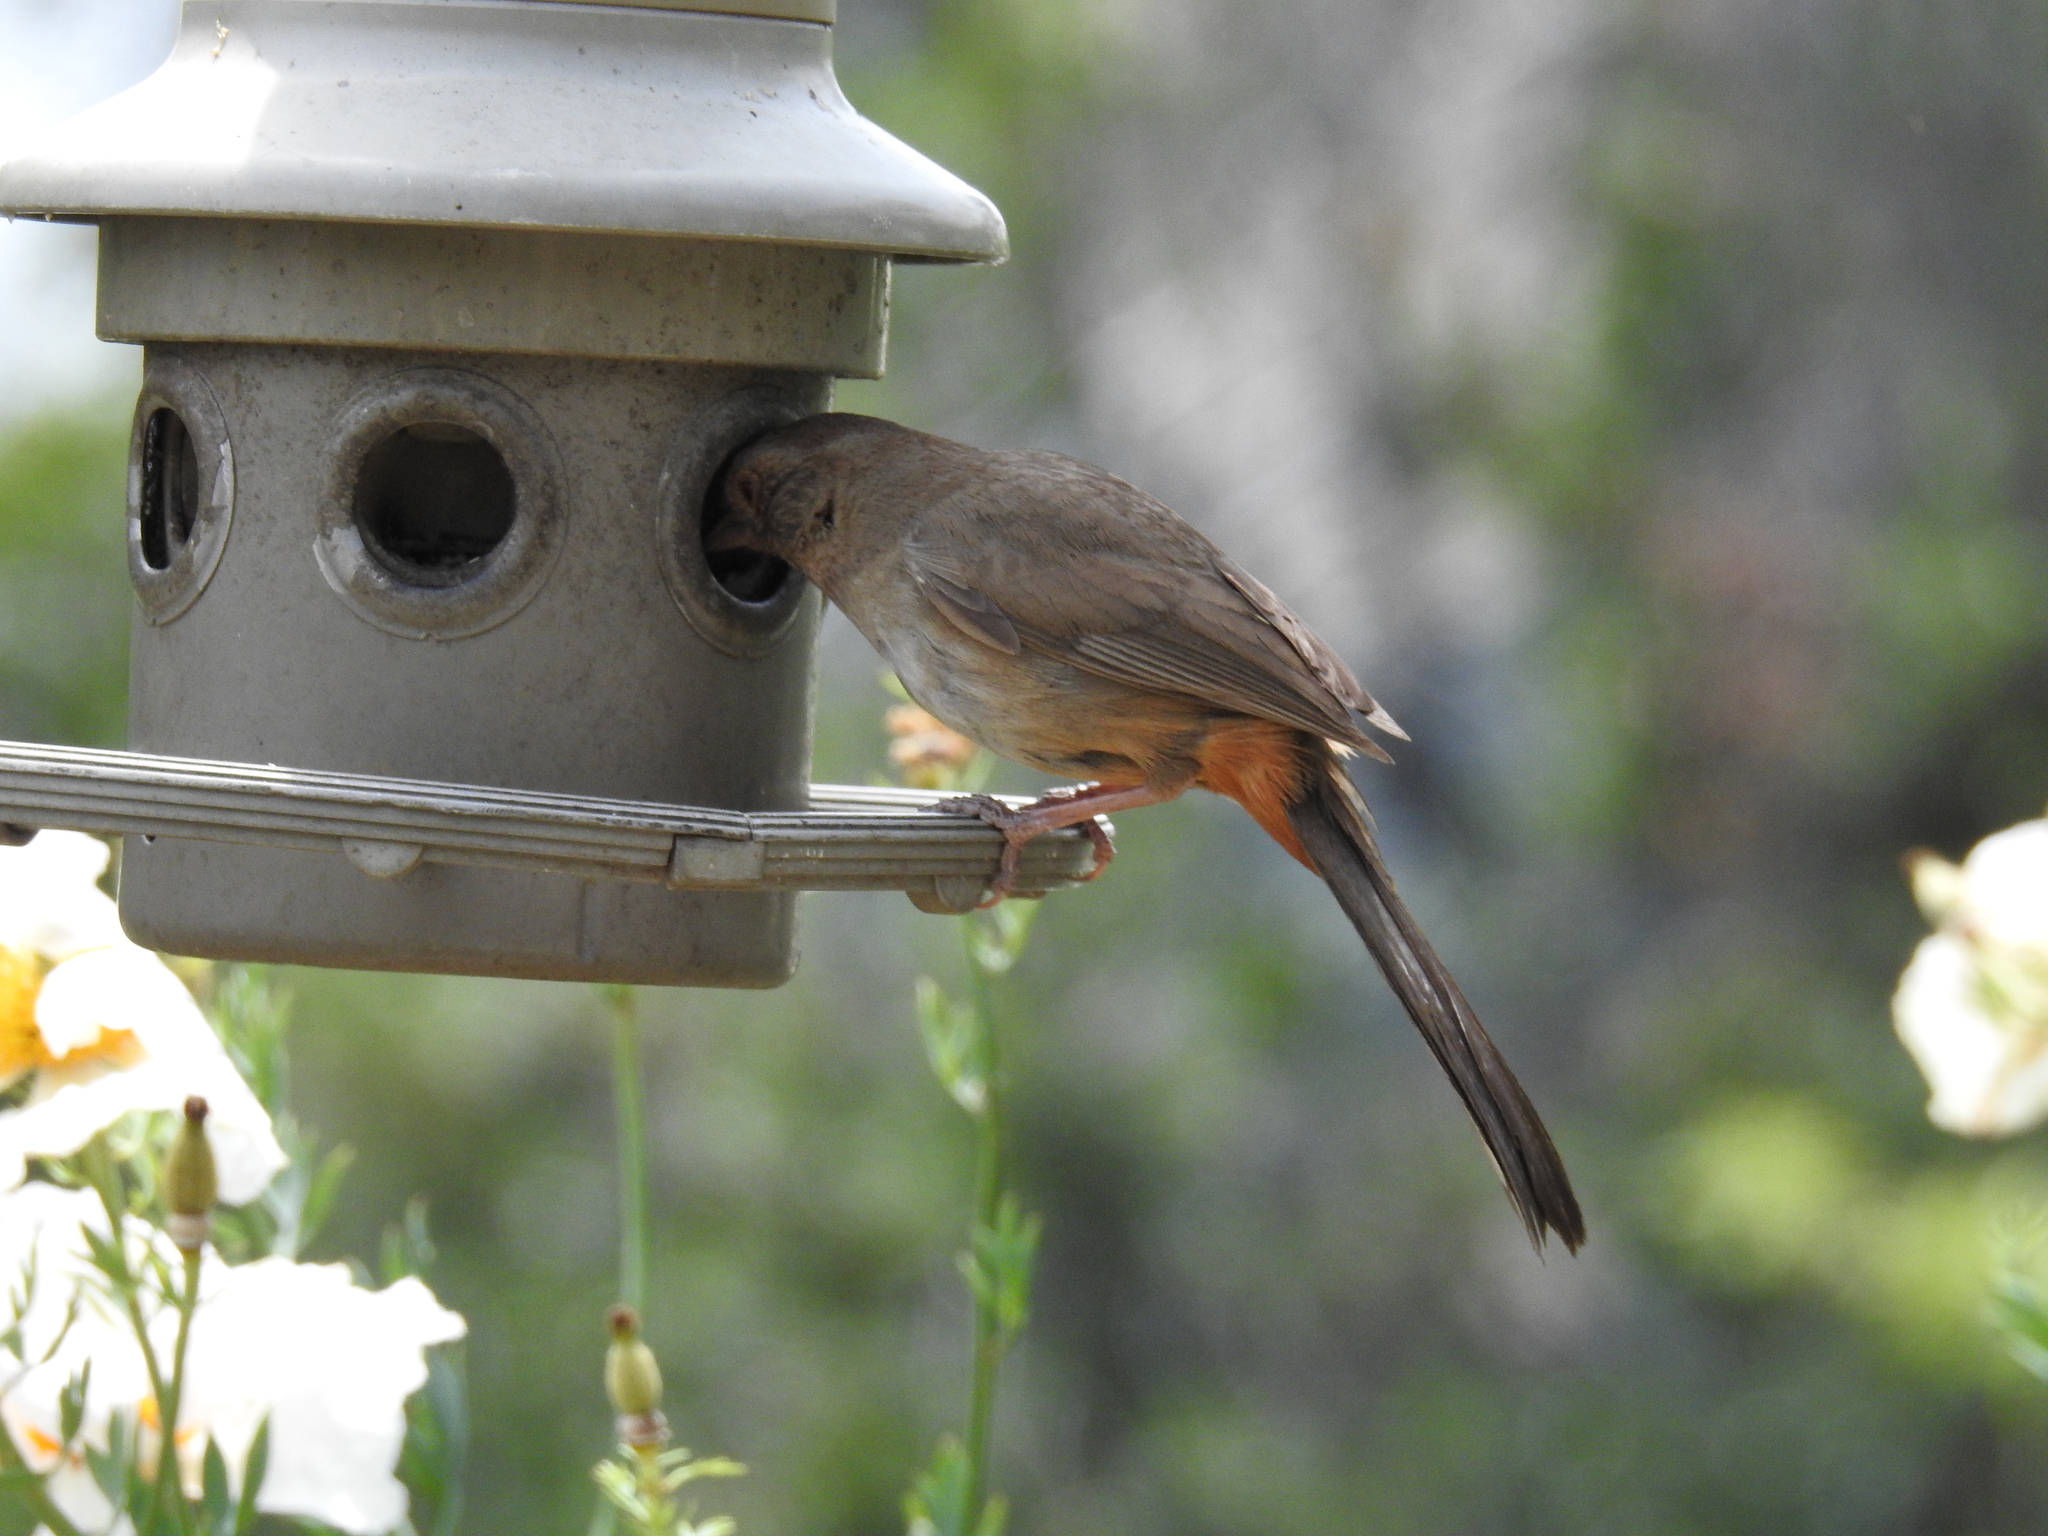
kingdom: Animalia
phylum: Chordata
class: Aves
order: Passeriformes
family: Passerellidae
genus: Melozone
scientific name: Melozone crissalis
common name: California towhee
